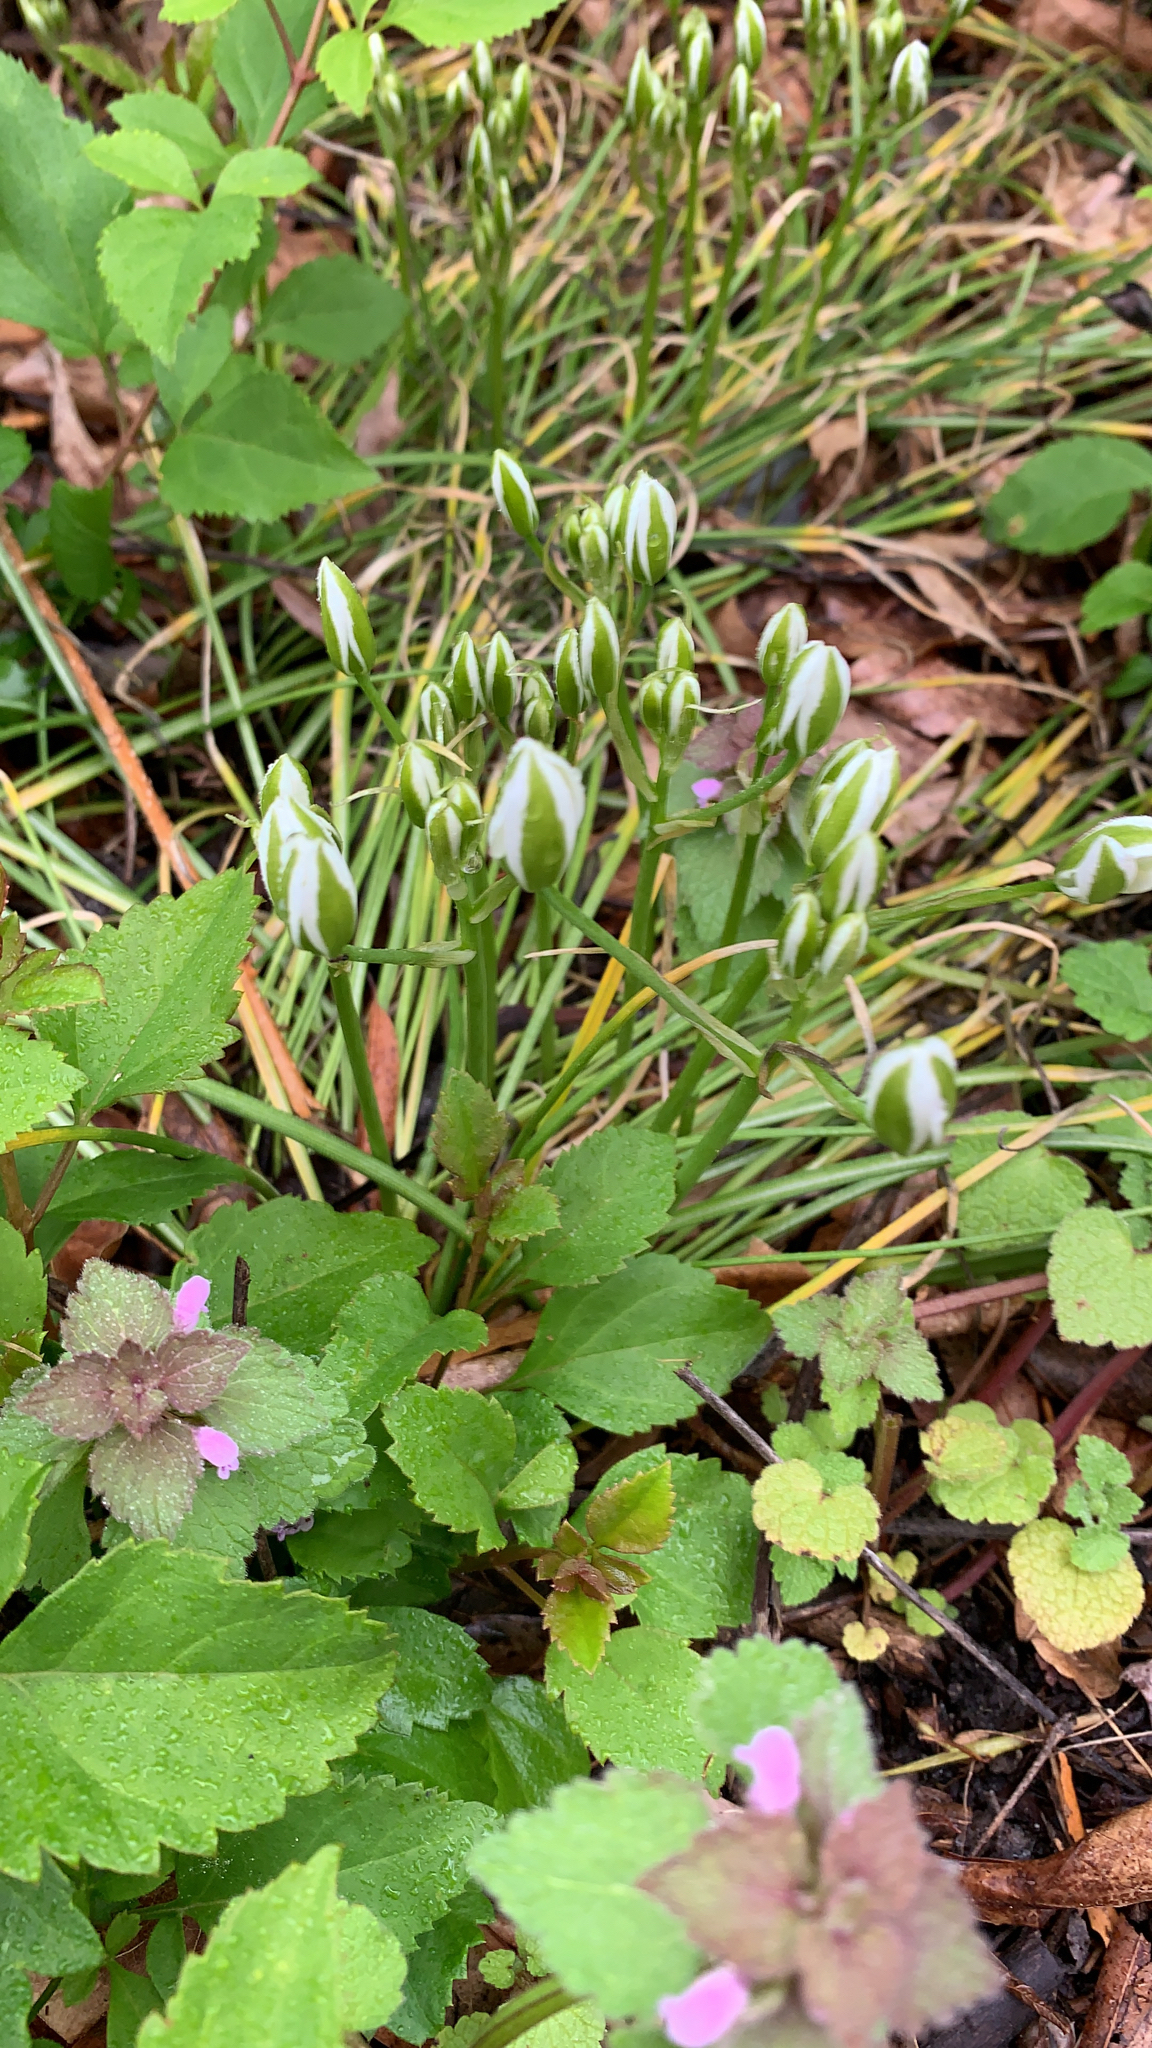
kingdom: Plantae
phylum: Tracheophyta
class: Liliopsida
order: Asparagales
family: Asparagaceae
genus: Ornithogalum
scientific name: Ornithogalum umbellatum
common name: Garden star-of-bethlehem
